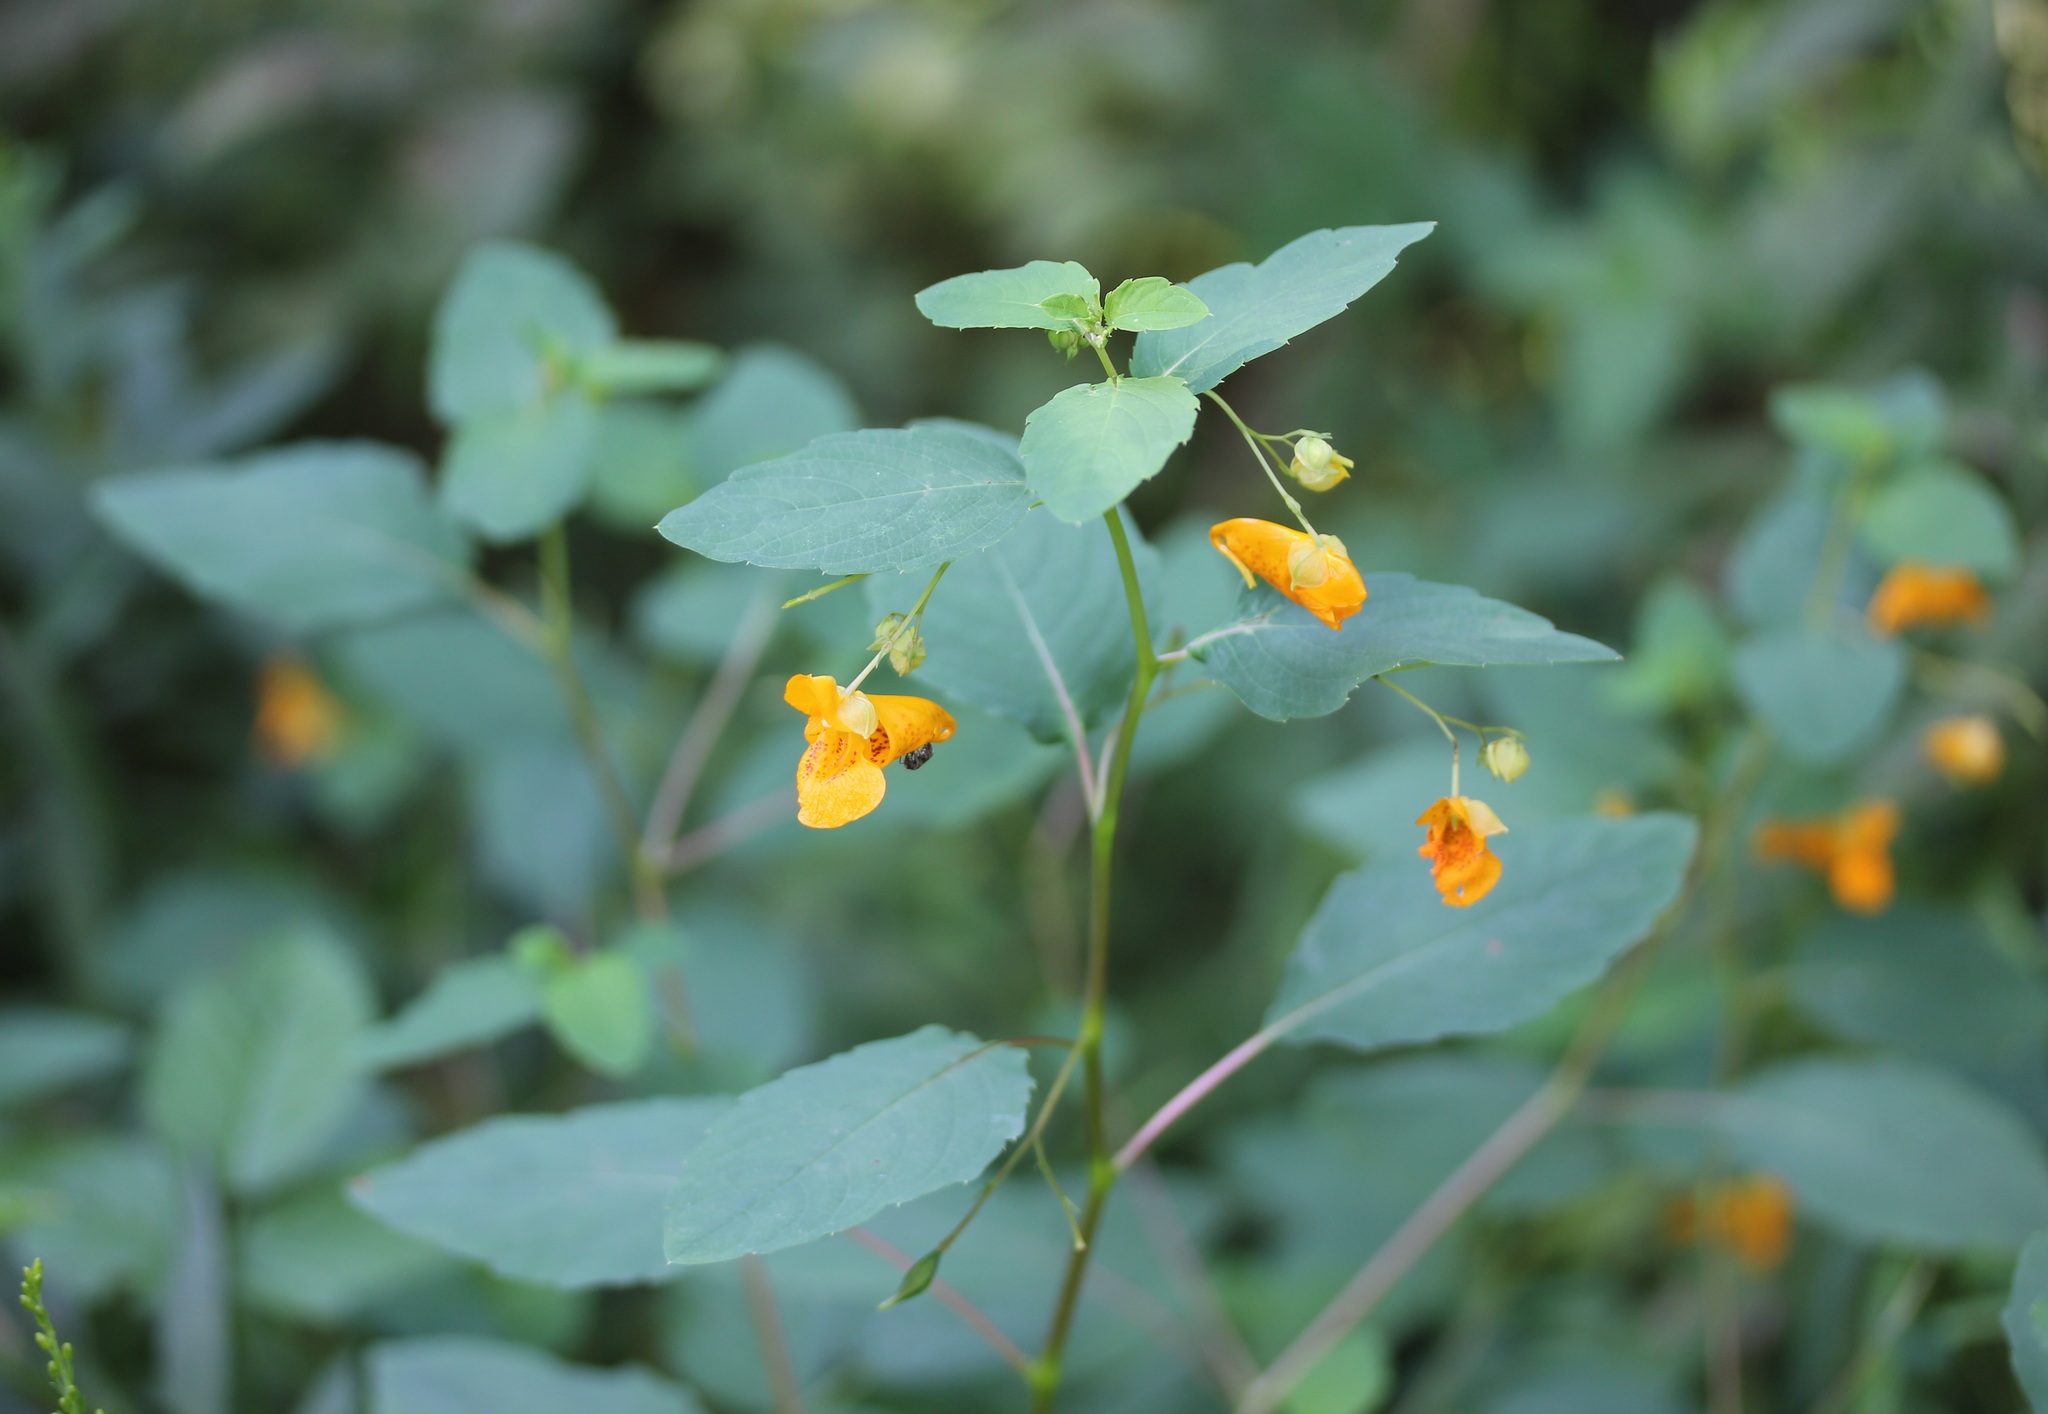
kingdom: Plantae
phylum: Tracheophyta
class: Magnoliopsida
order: Ericales
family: Balsaminaceae
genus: Impatiens
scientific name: Impatiens capensis
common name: Orange balsam
